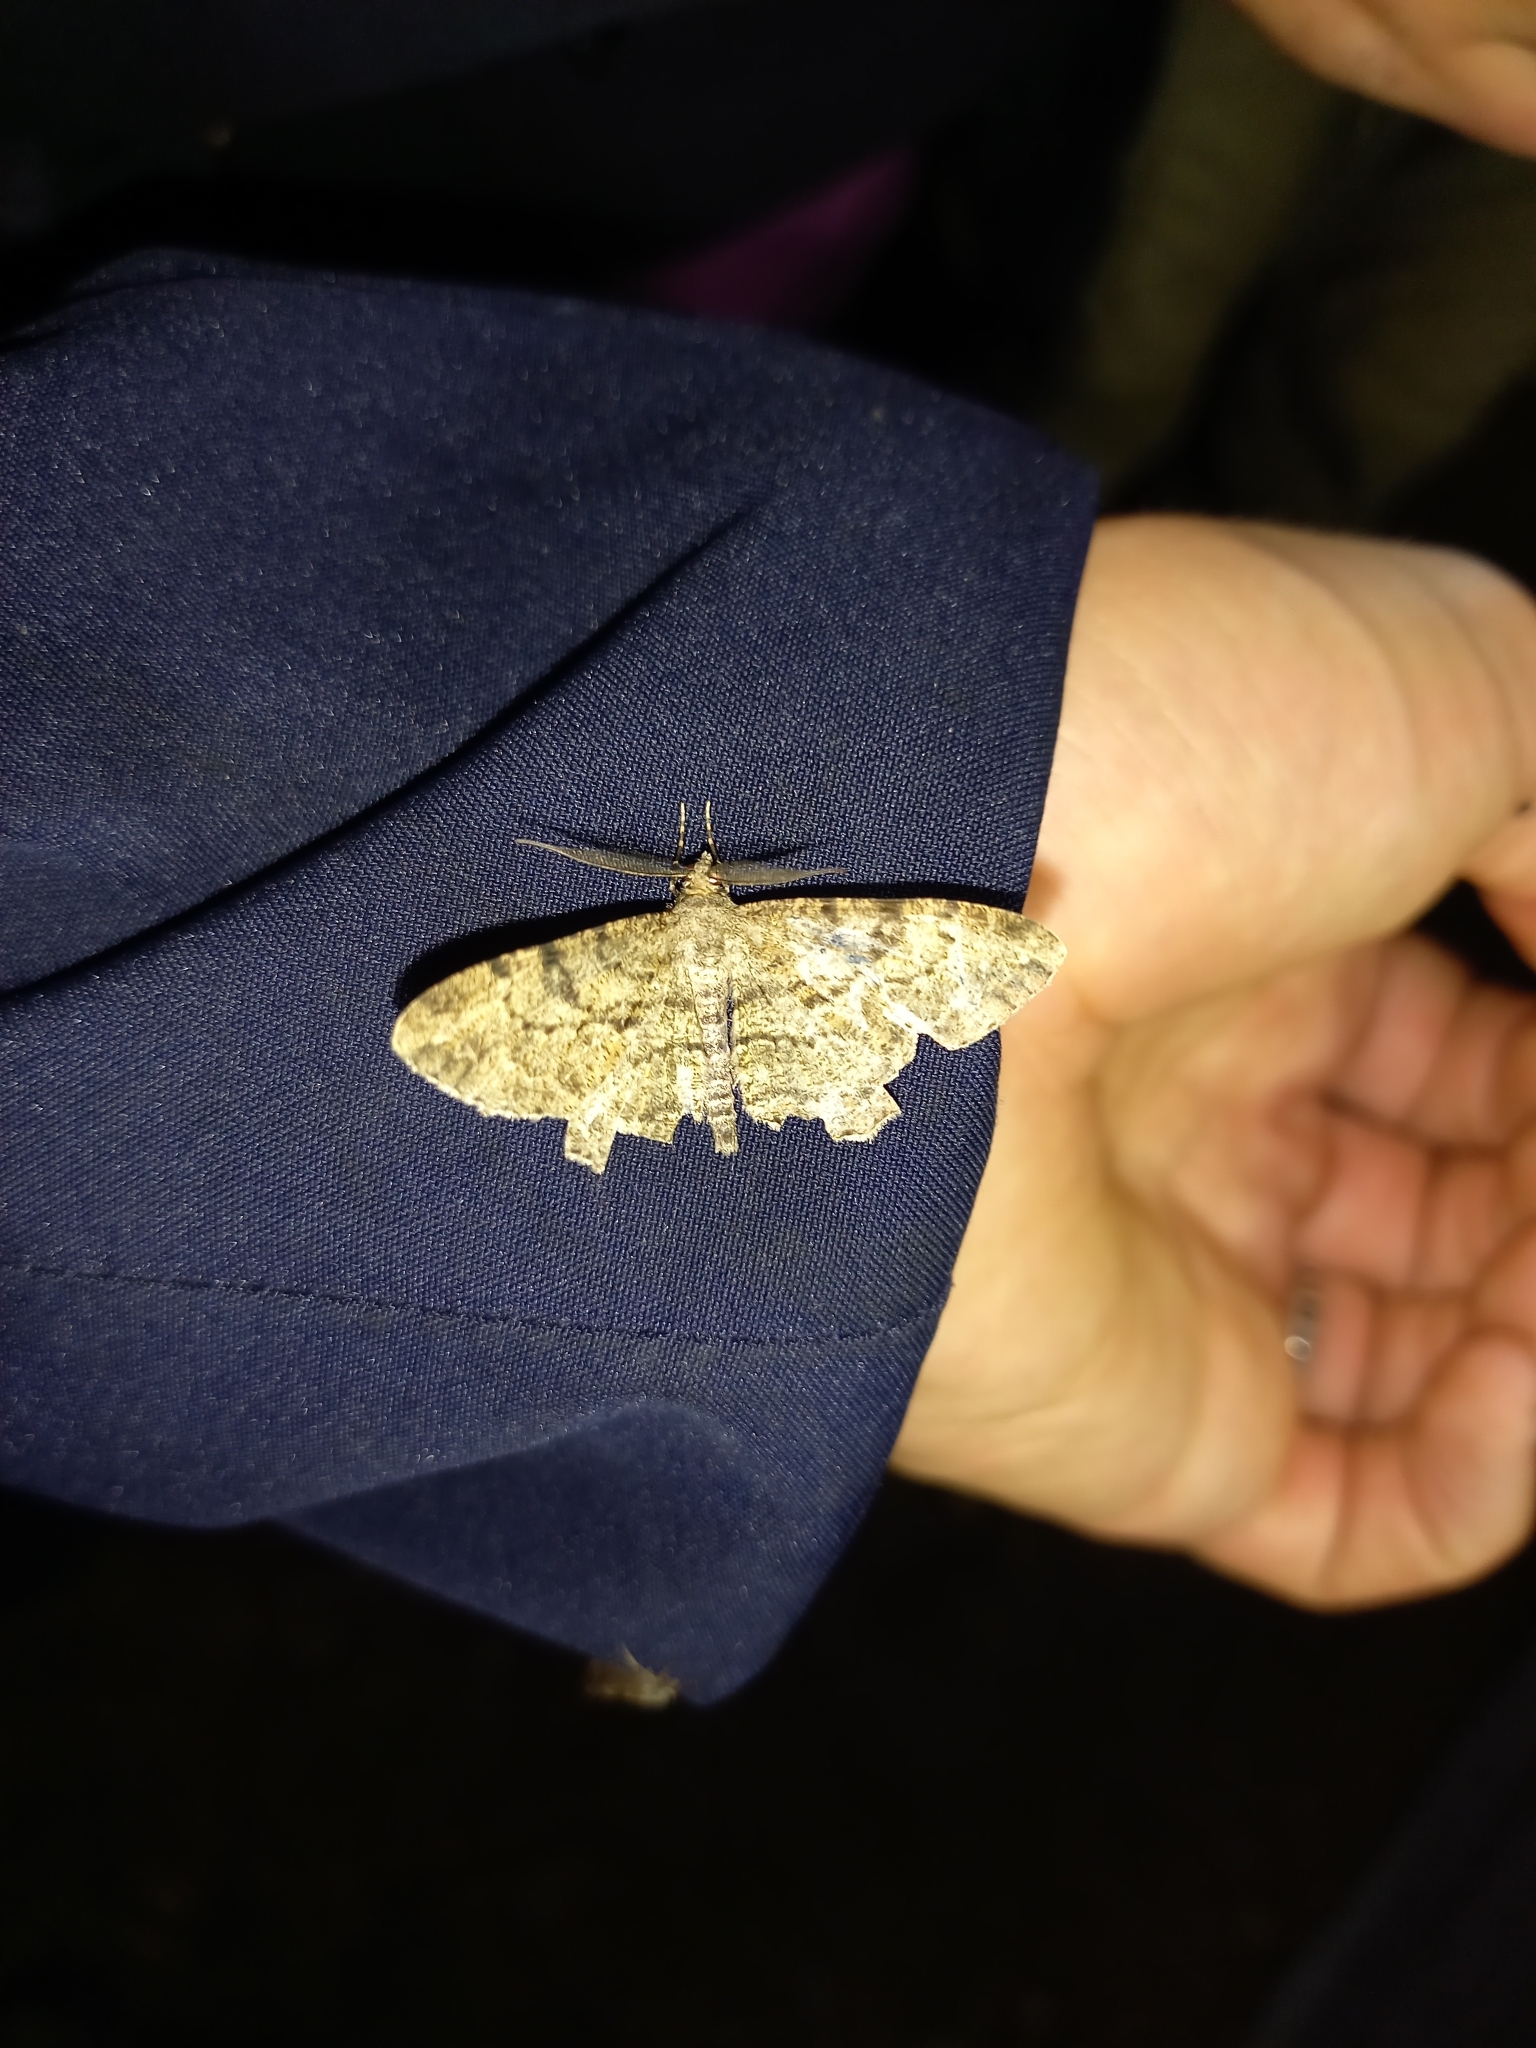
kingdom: Animalia
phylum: Arthropoda
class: Insecta
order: Lepidoptera
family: Geometridae
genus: Peribatodes
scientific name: Peribatodes rhomboidaria
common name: Willow beauty
